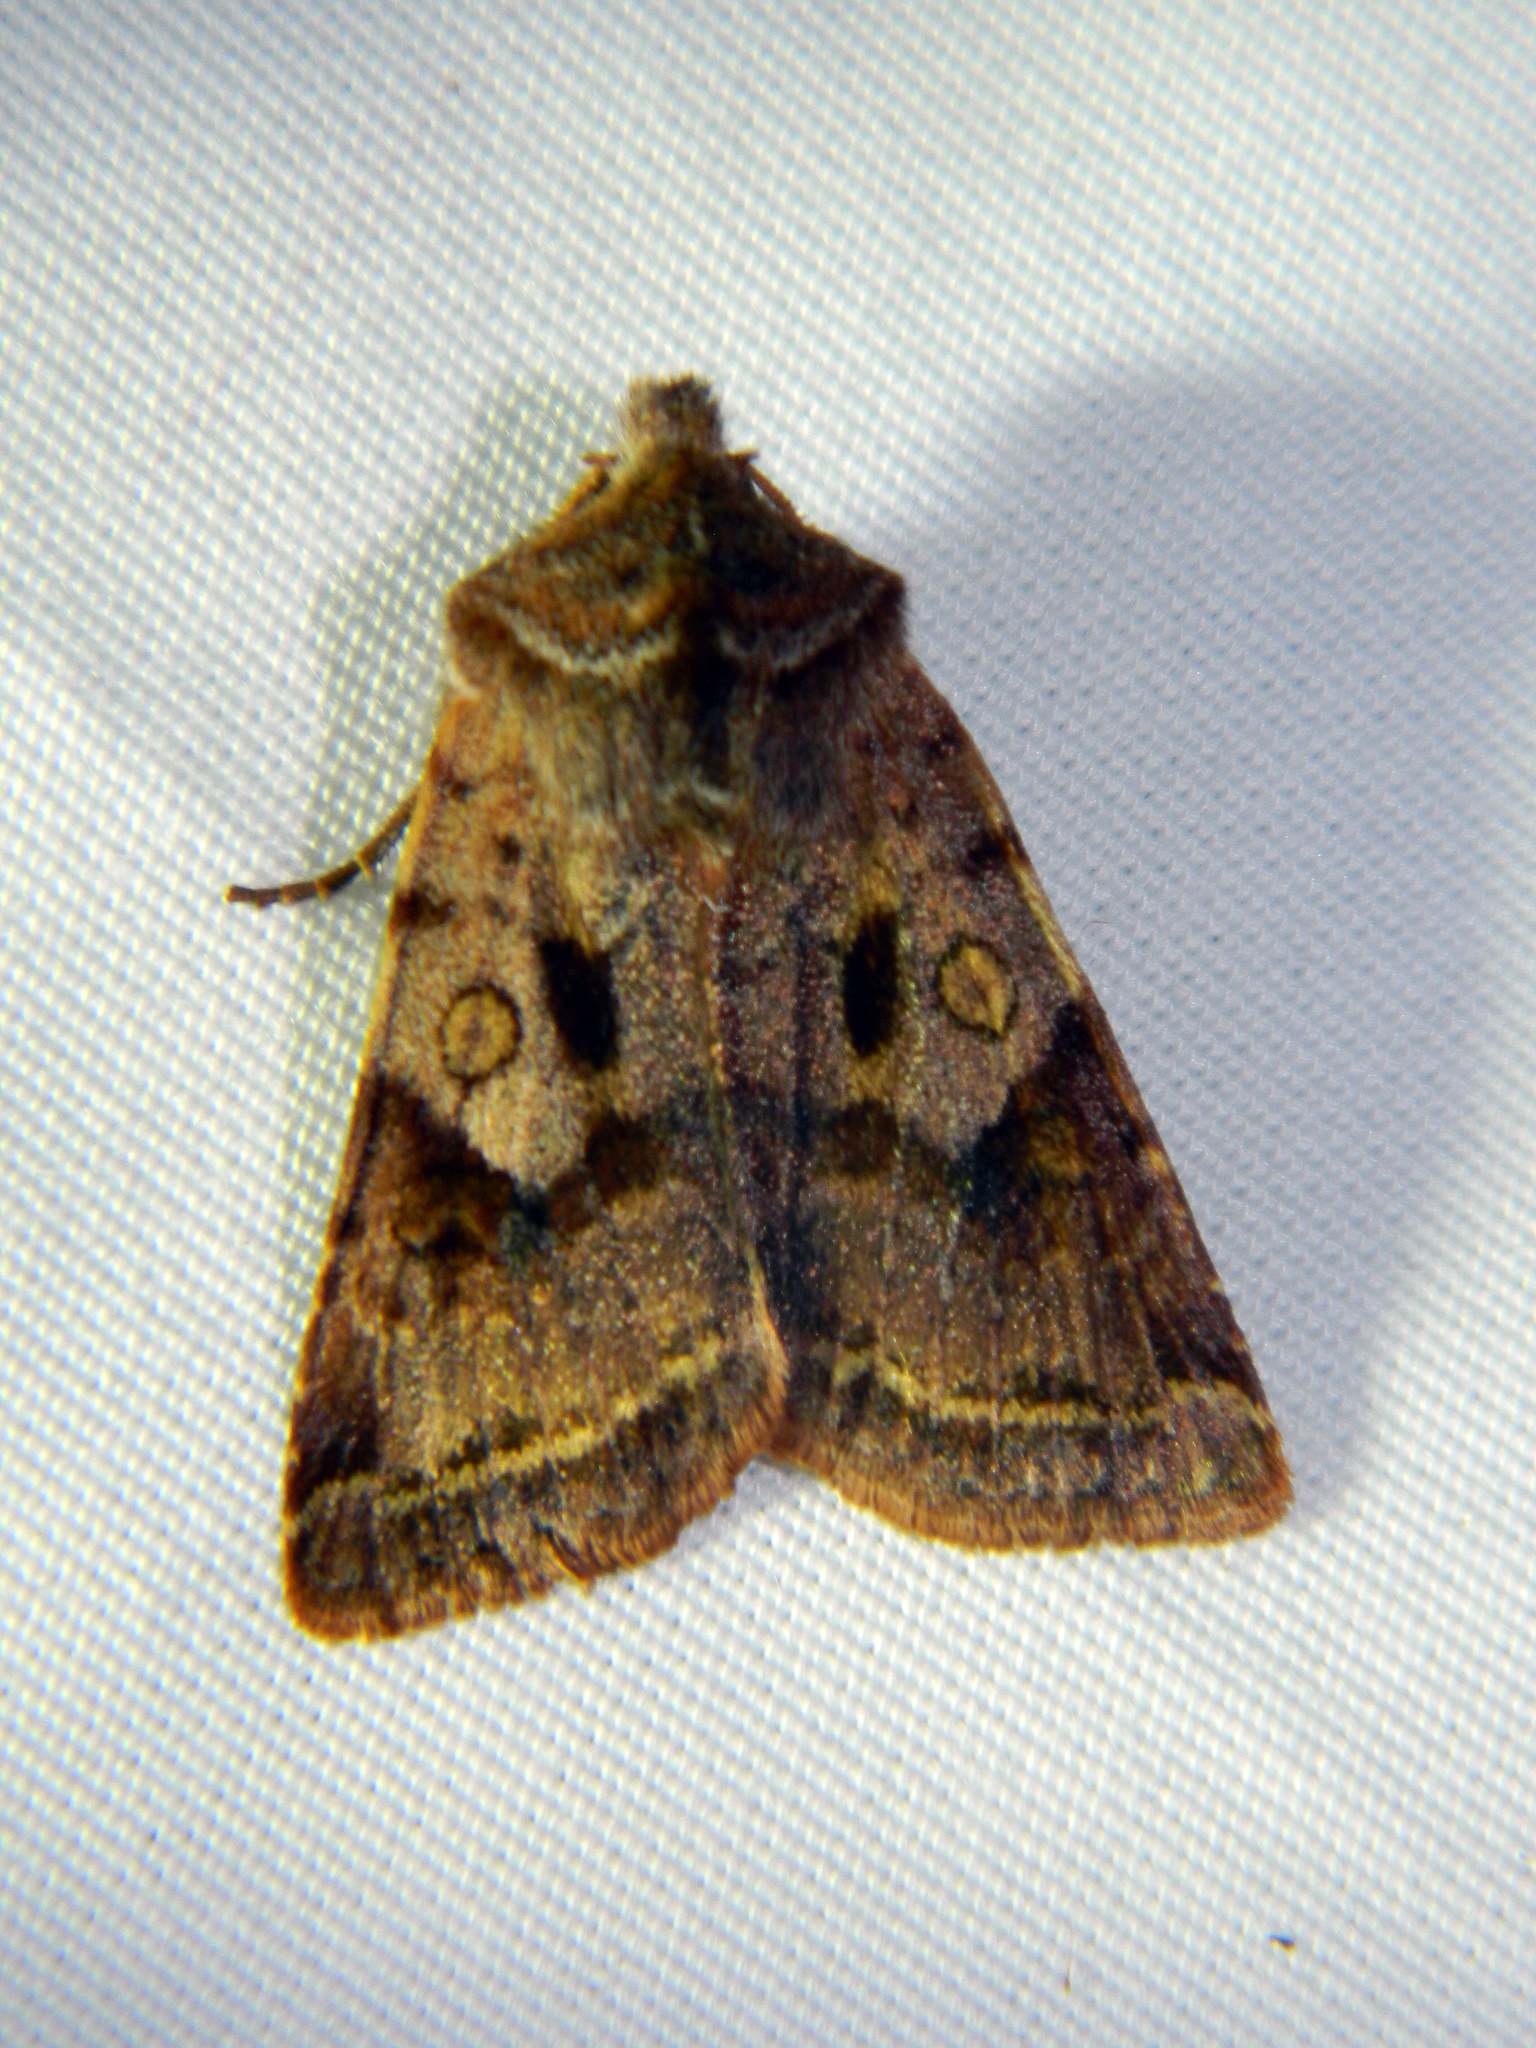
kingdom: Animalia
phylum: Arthropoda
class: Insecta
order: Lepidoptera
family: Noctuidae
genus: Cerastis
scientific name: Cerastis salicarum
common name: Willow dart
